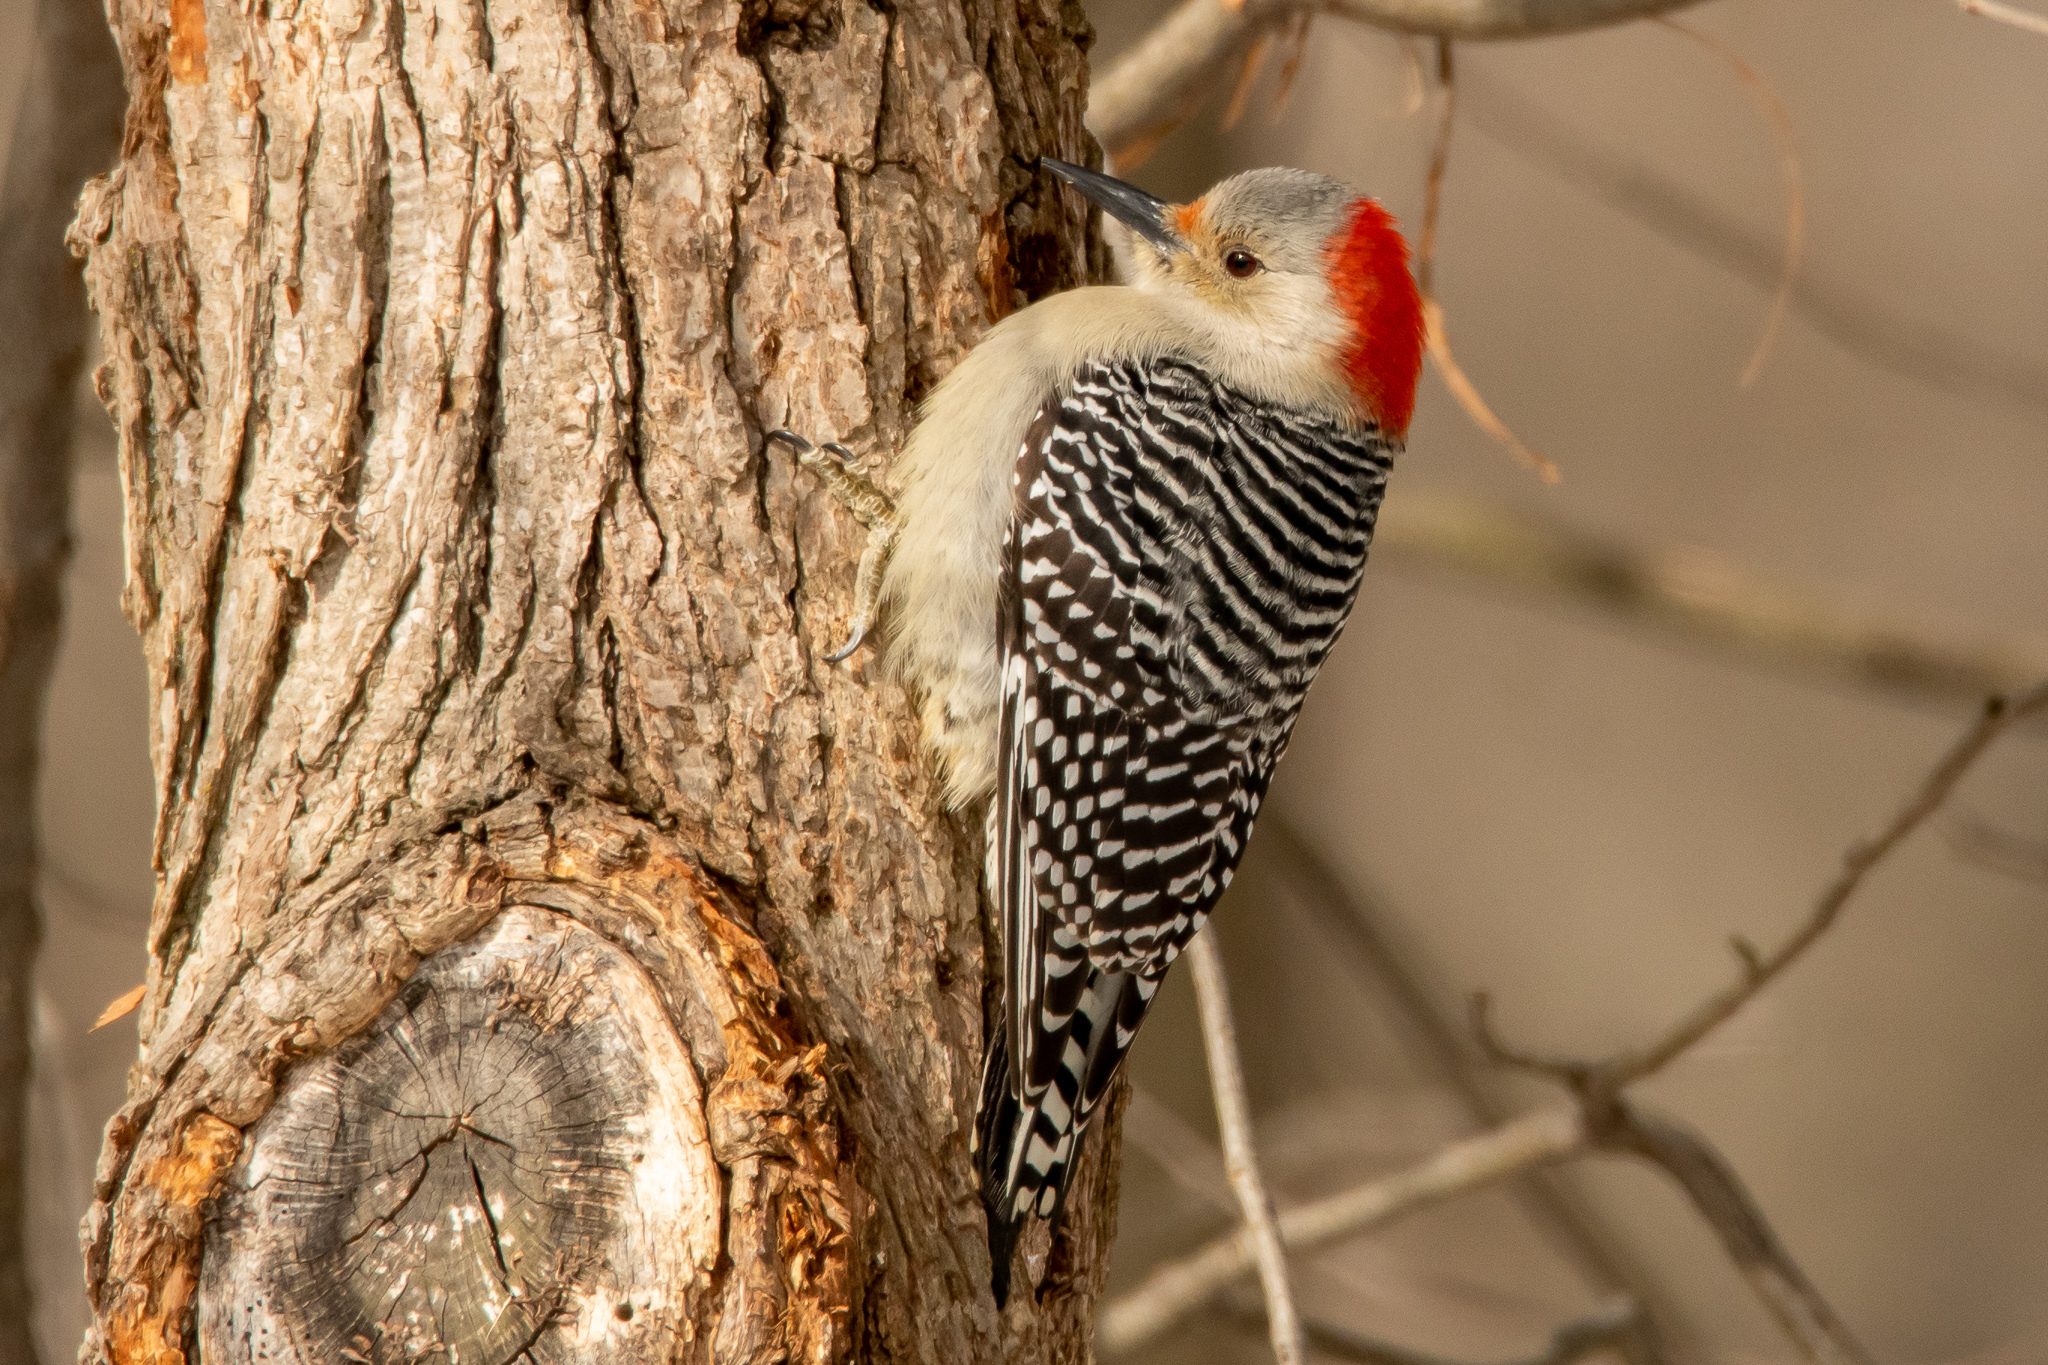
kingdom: Animalia
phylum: Chordata
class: Aves
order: Piciformes
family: Picidae
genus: Melanerpes
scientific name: Melanerpes carolinus
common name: Red-bellied woodpecker
